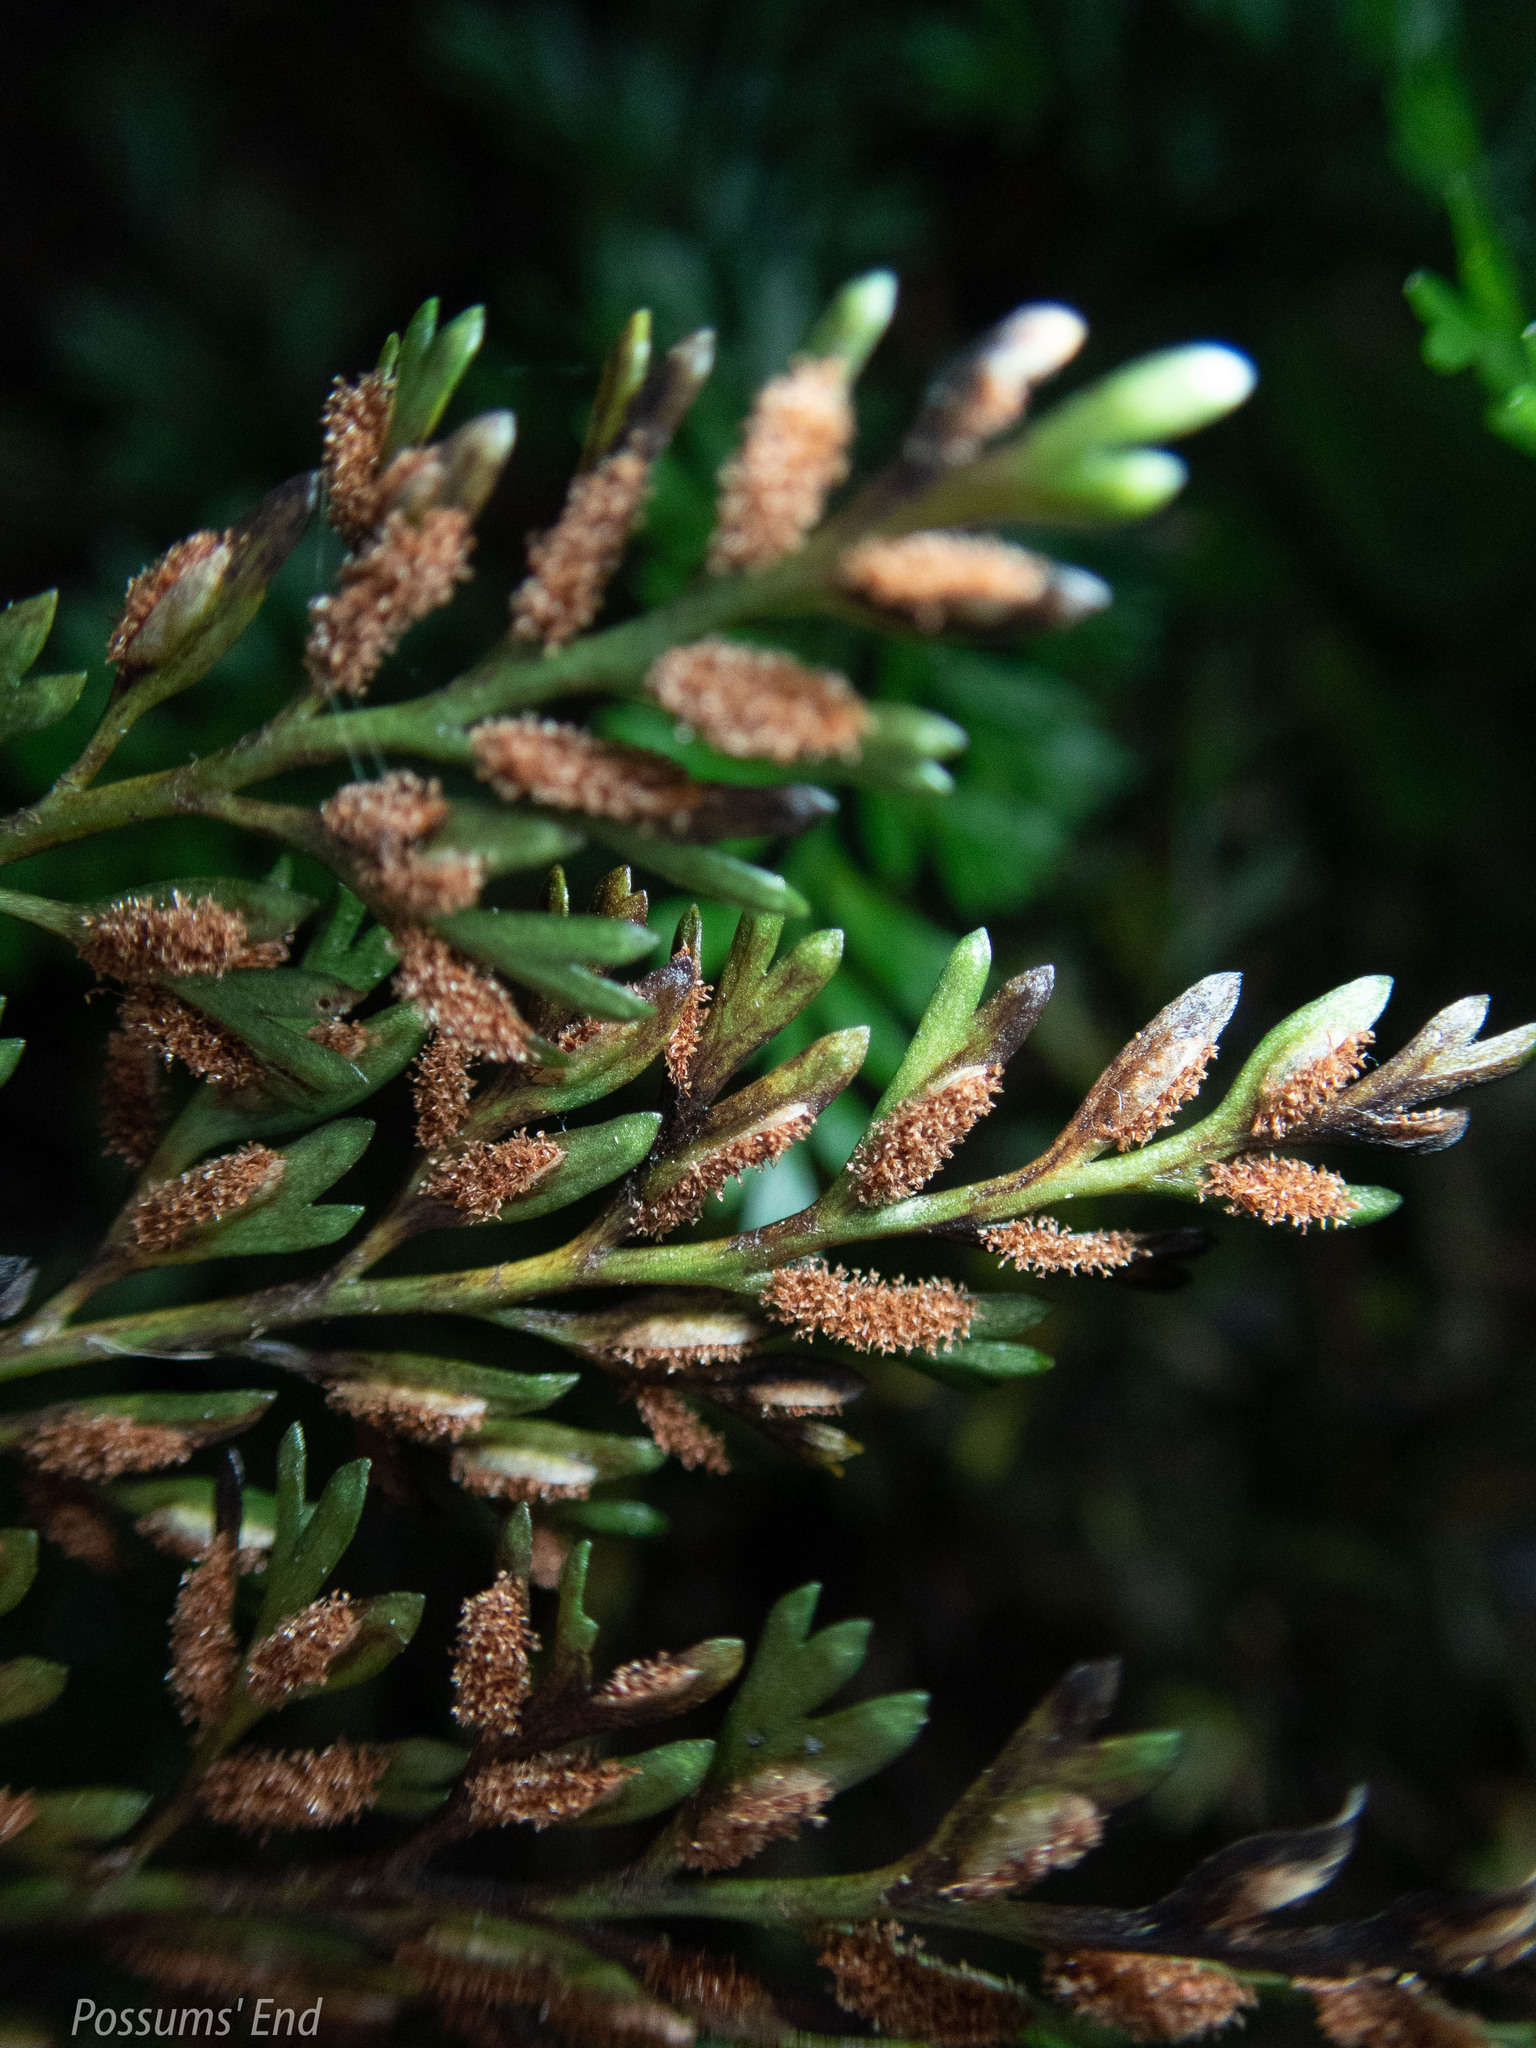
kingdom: Plantae
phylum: Tracheophyta
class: Polypodiopsida
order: Polypodiales
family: Aspleniaceae
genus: Asplenium
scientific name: Asplenium richardii
